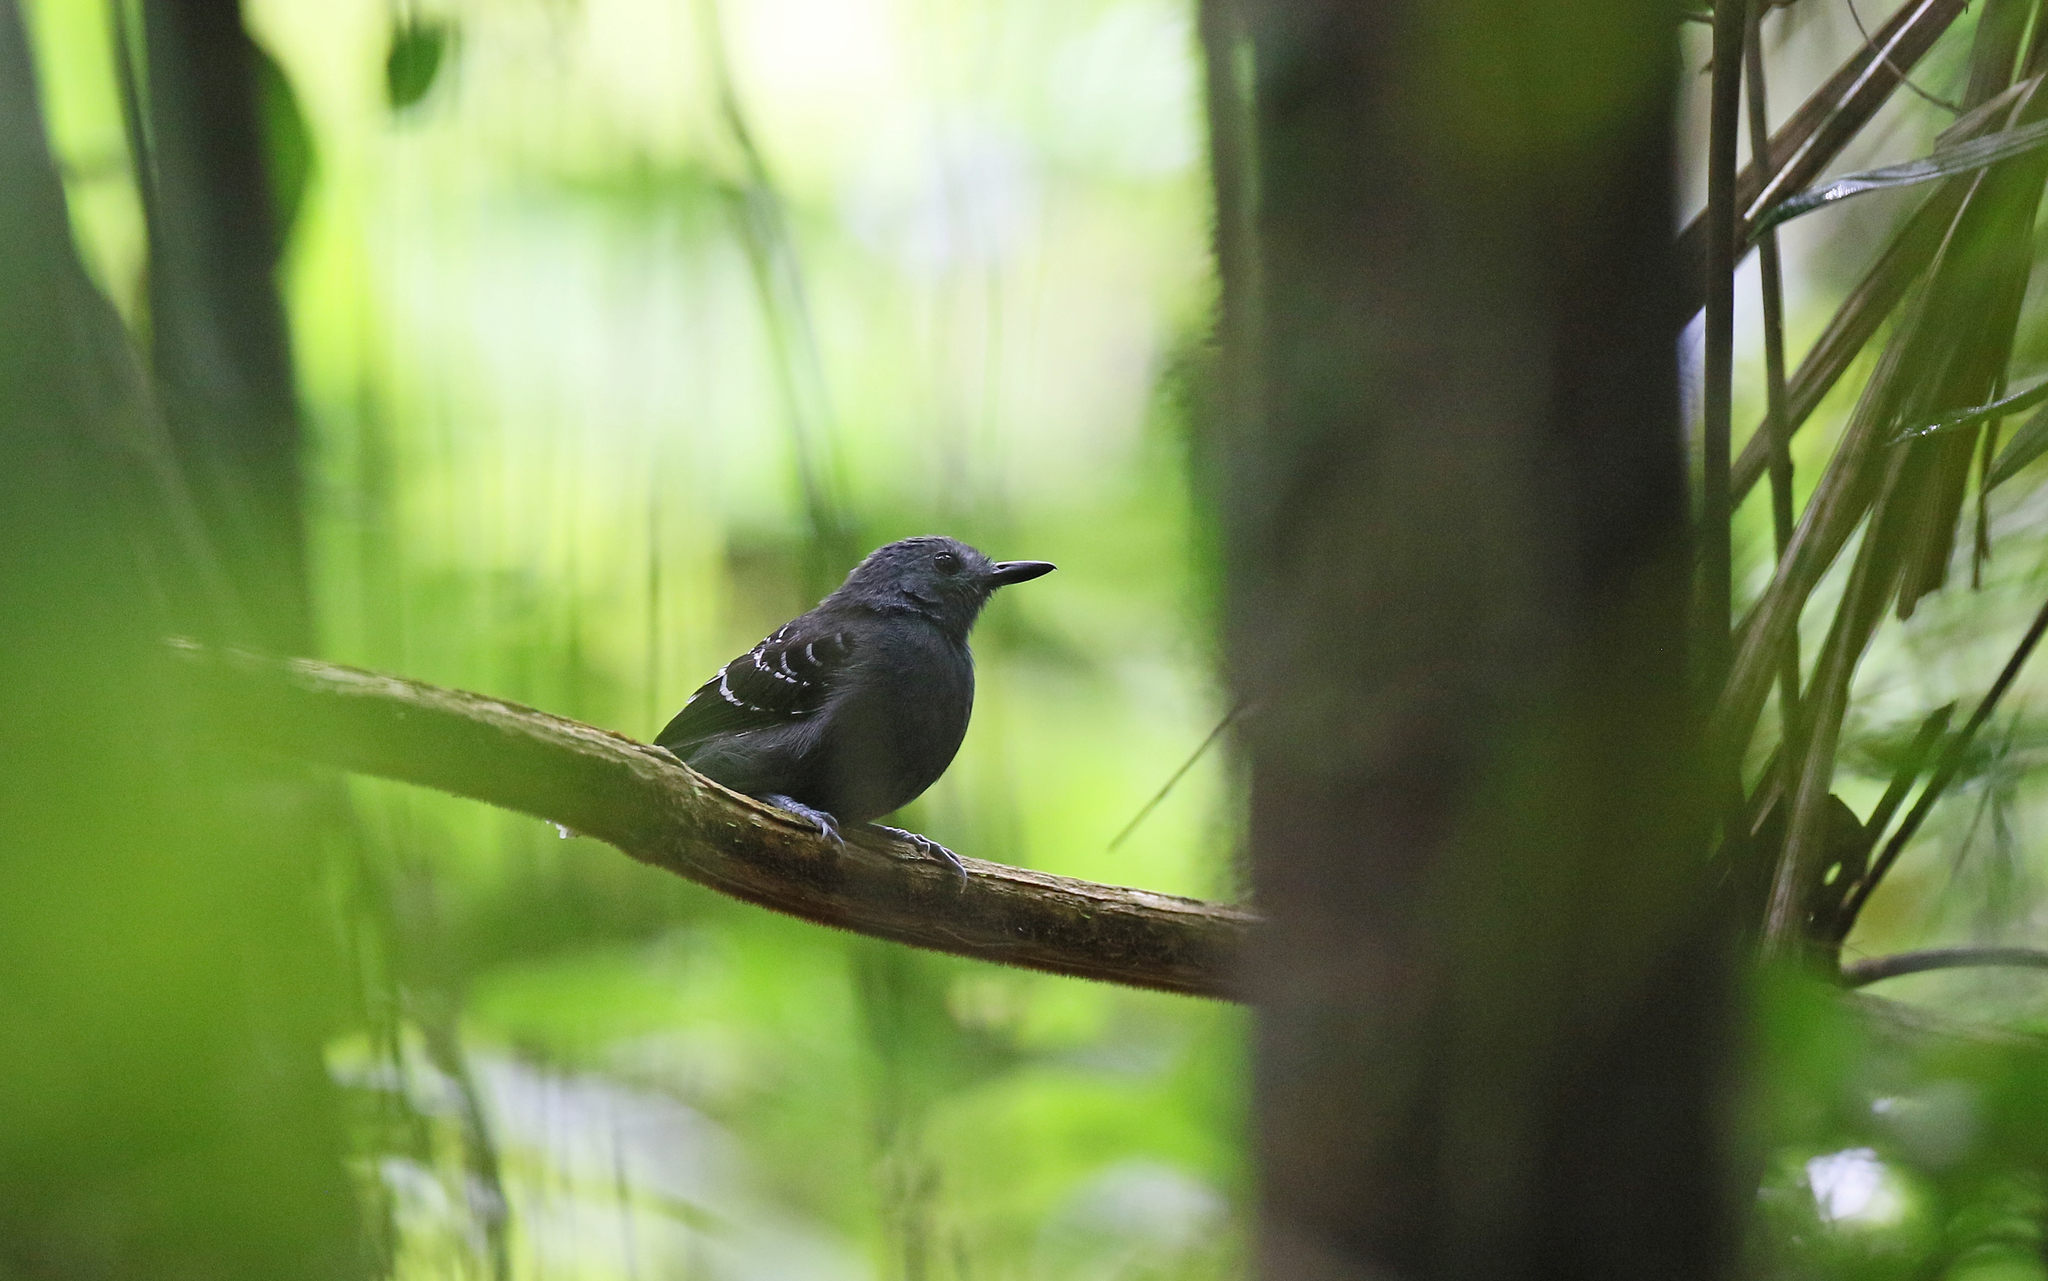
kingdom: Animalia
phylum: Chordata
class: Aves
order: Passeriformes
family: Thamnophilidae
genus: Willisornis
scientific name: Willisornis poecilinotus
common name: Common scale-backed antbird
